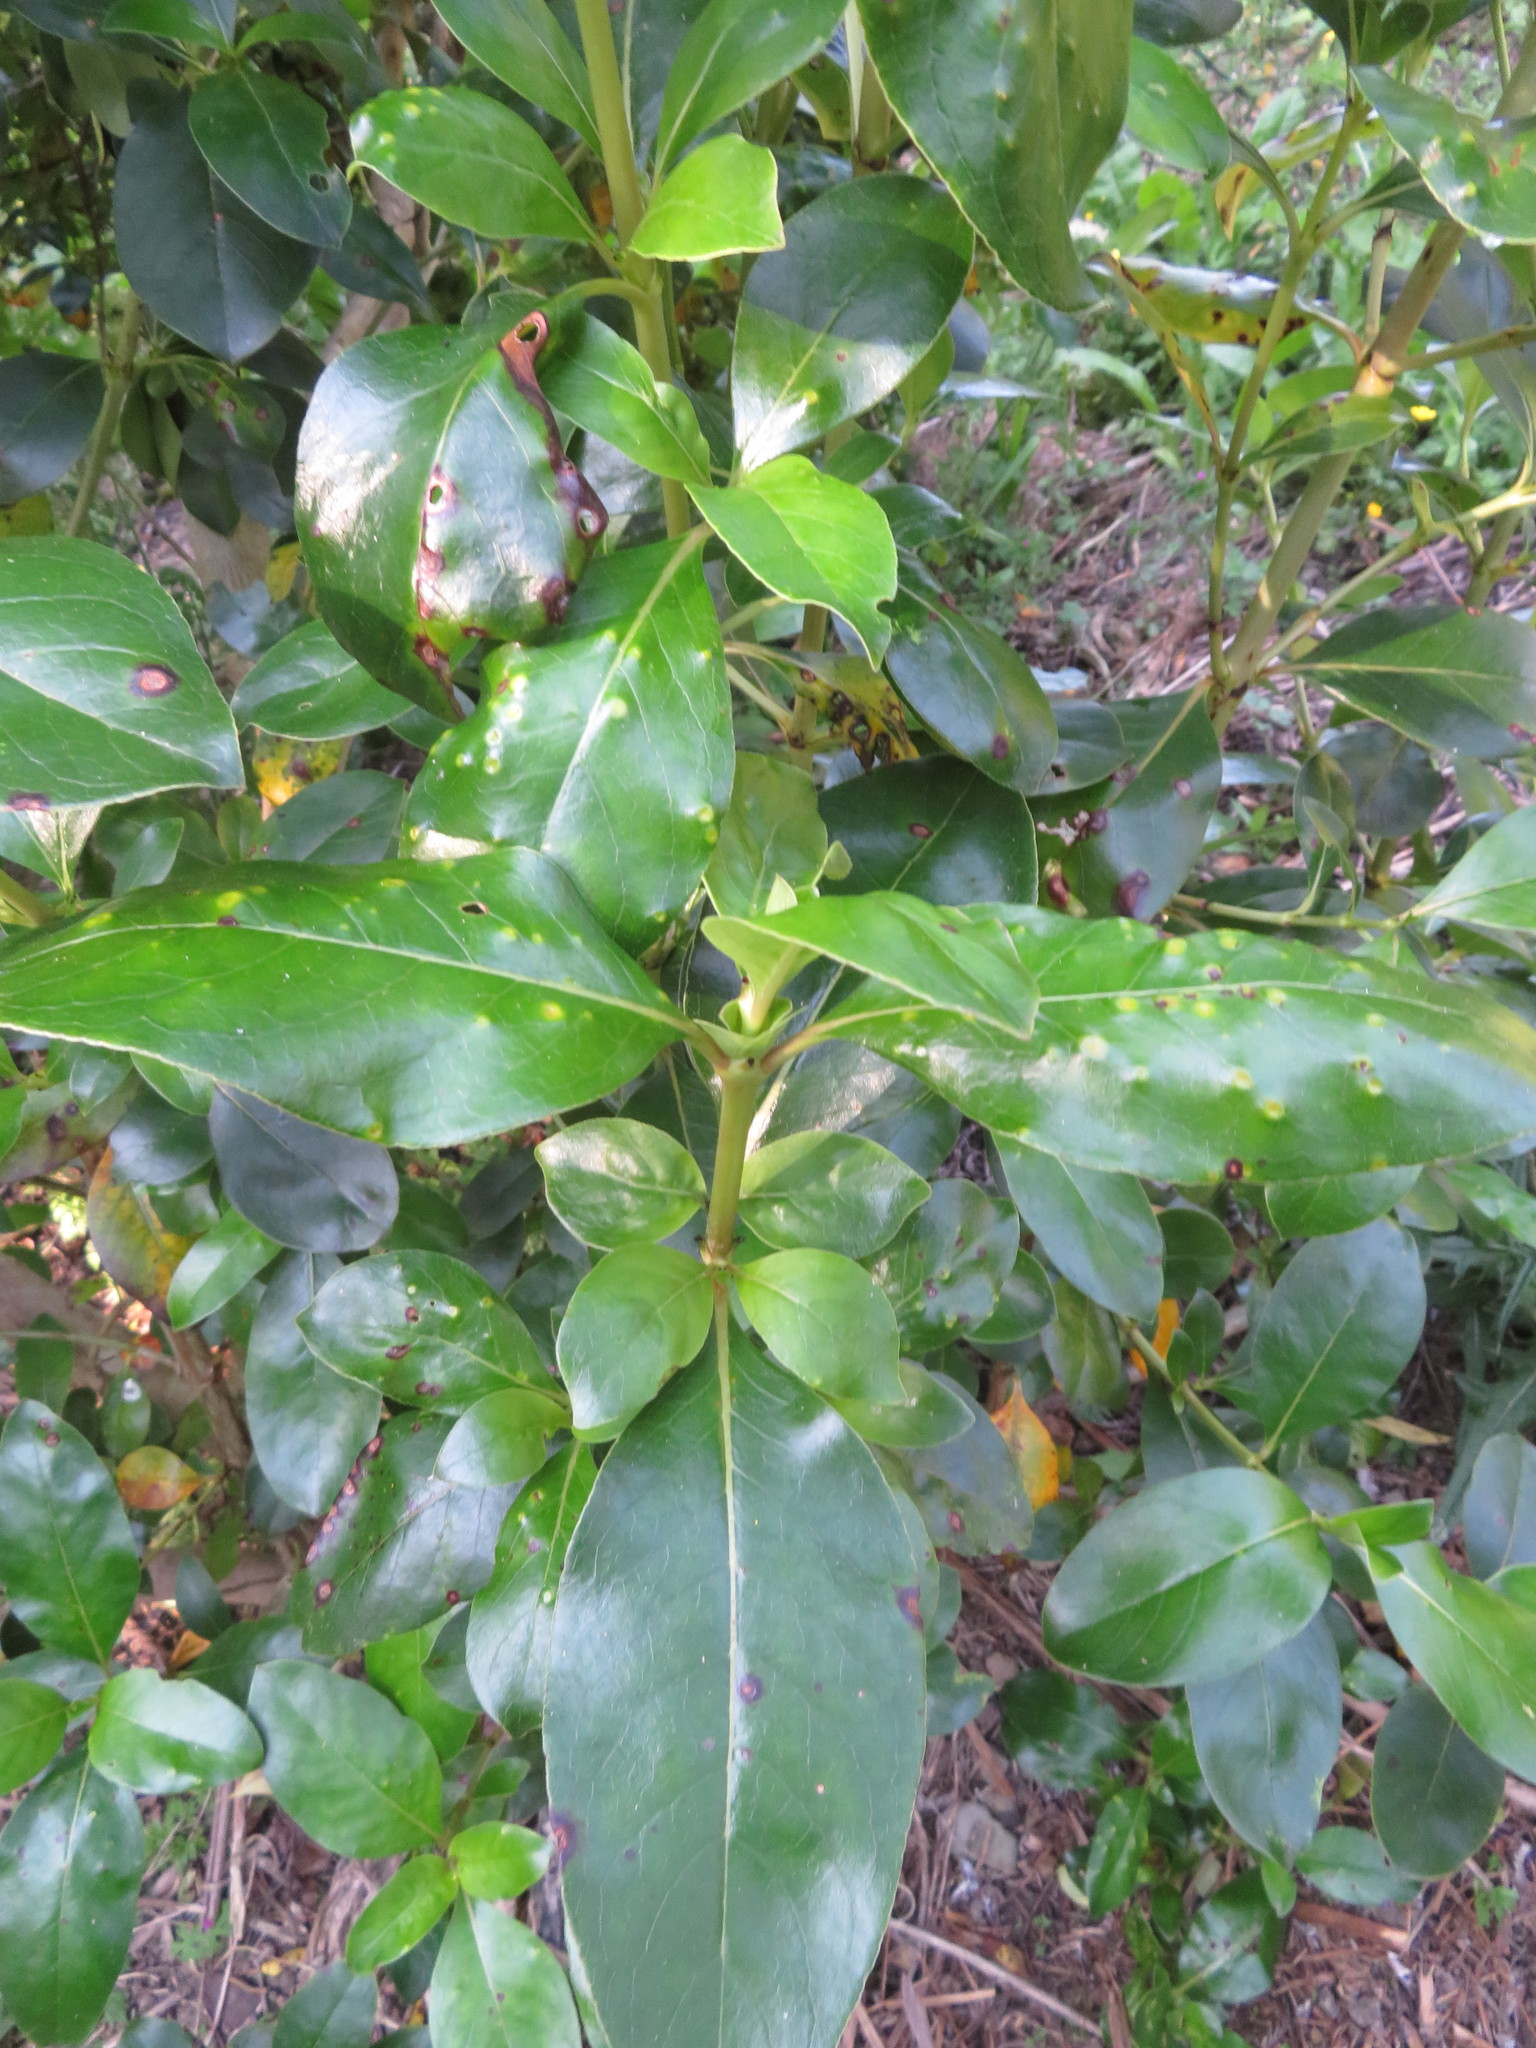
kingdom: Plantae
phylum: Tracheophyta
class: Magnoliopsida
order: Gentianales
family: Rubiaceae
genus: Coprosma
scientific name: Coprosma robusta
